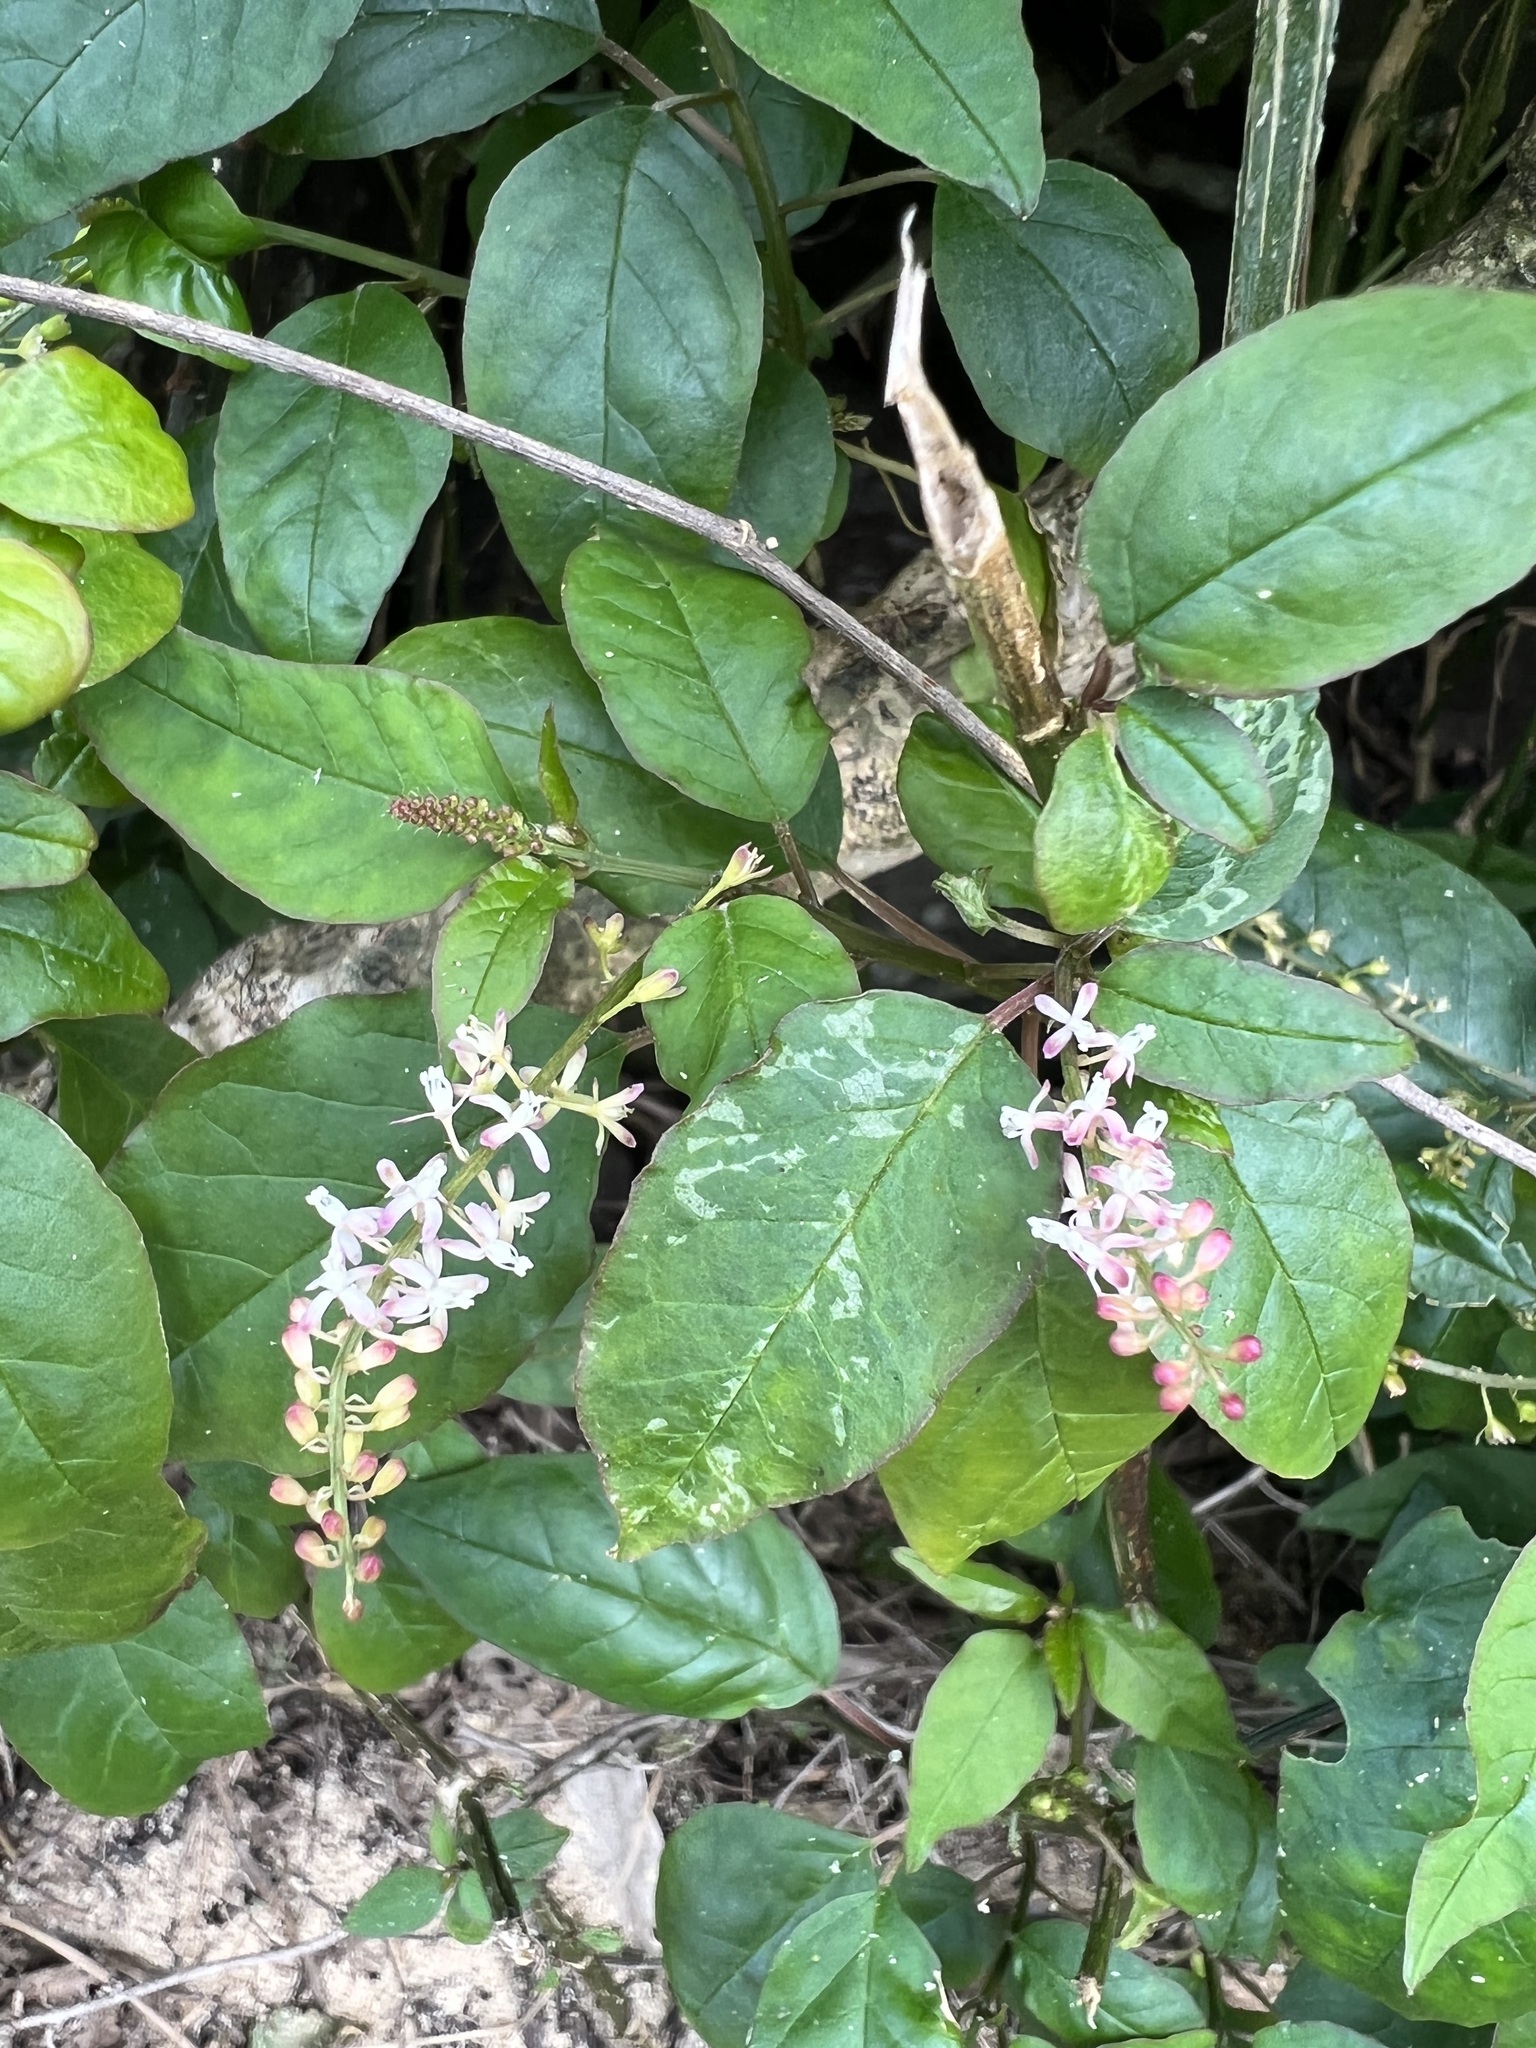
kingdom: Plantae
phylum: Tracheophyta
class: Magnoliopsida
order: Caryophyllales
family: Phytolaccaceae
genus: Rivina
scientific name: Rivina humilis
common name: Rougeplant
